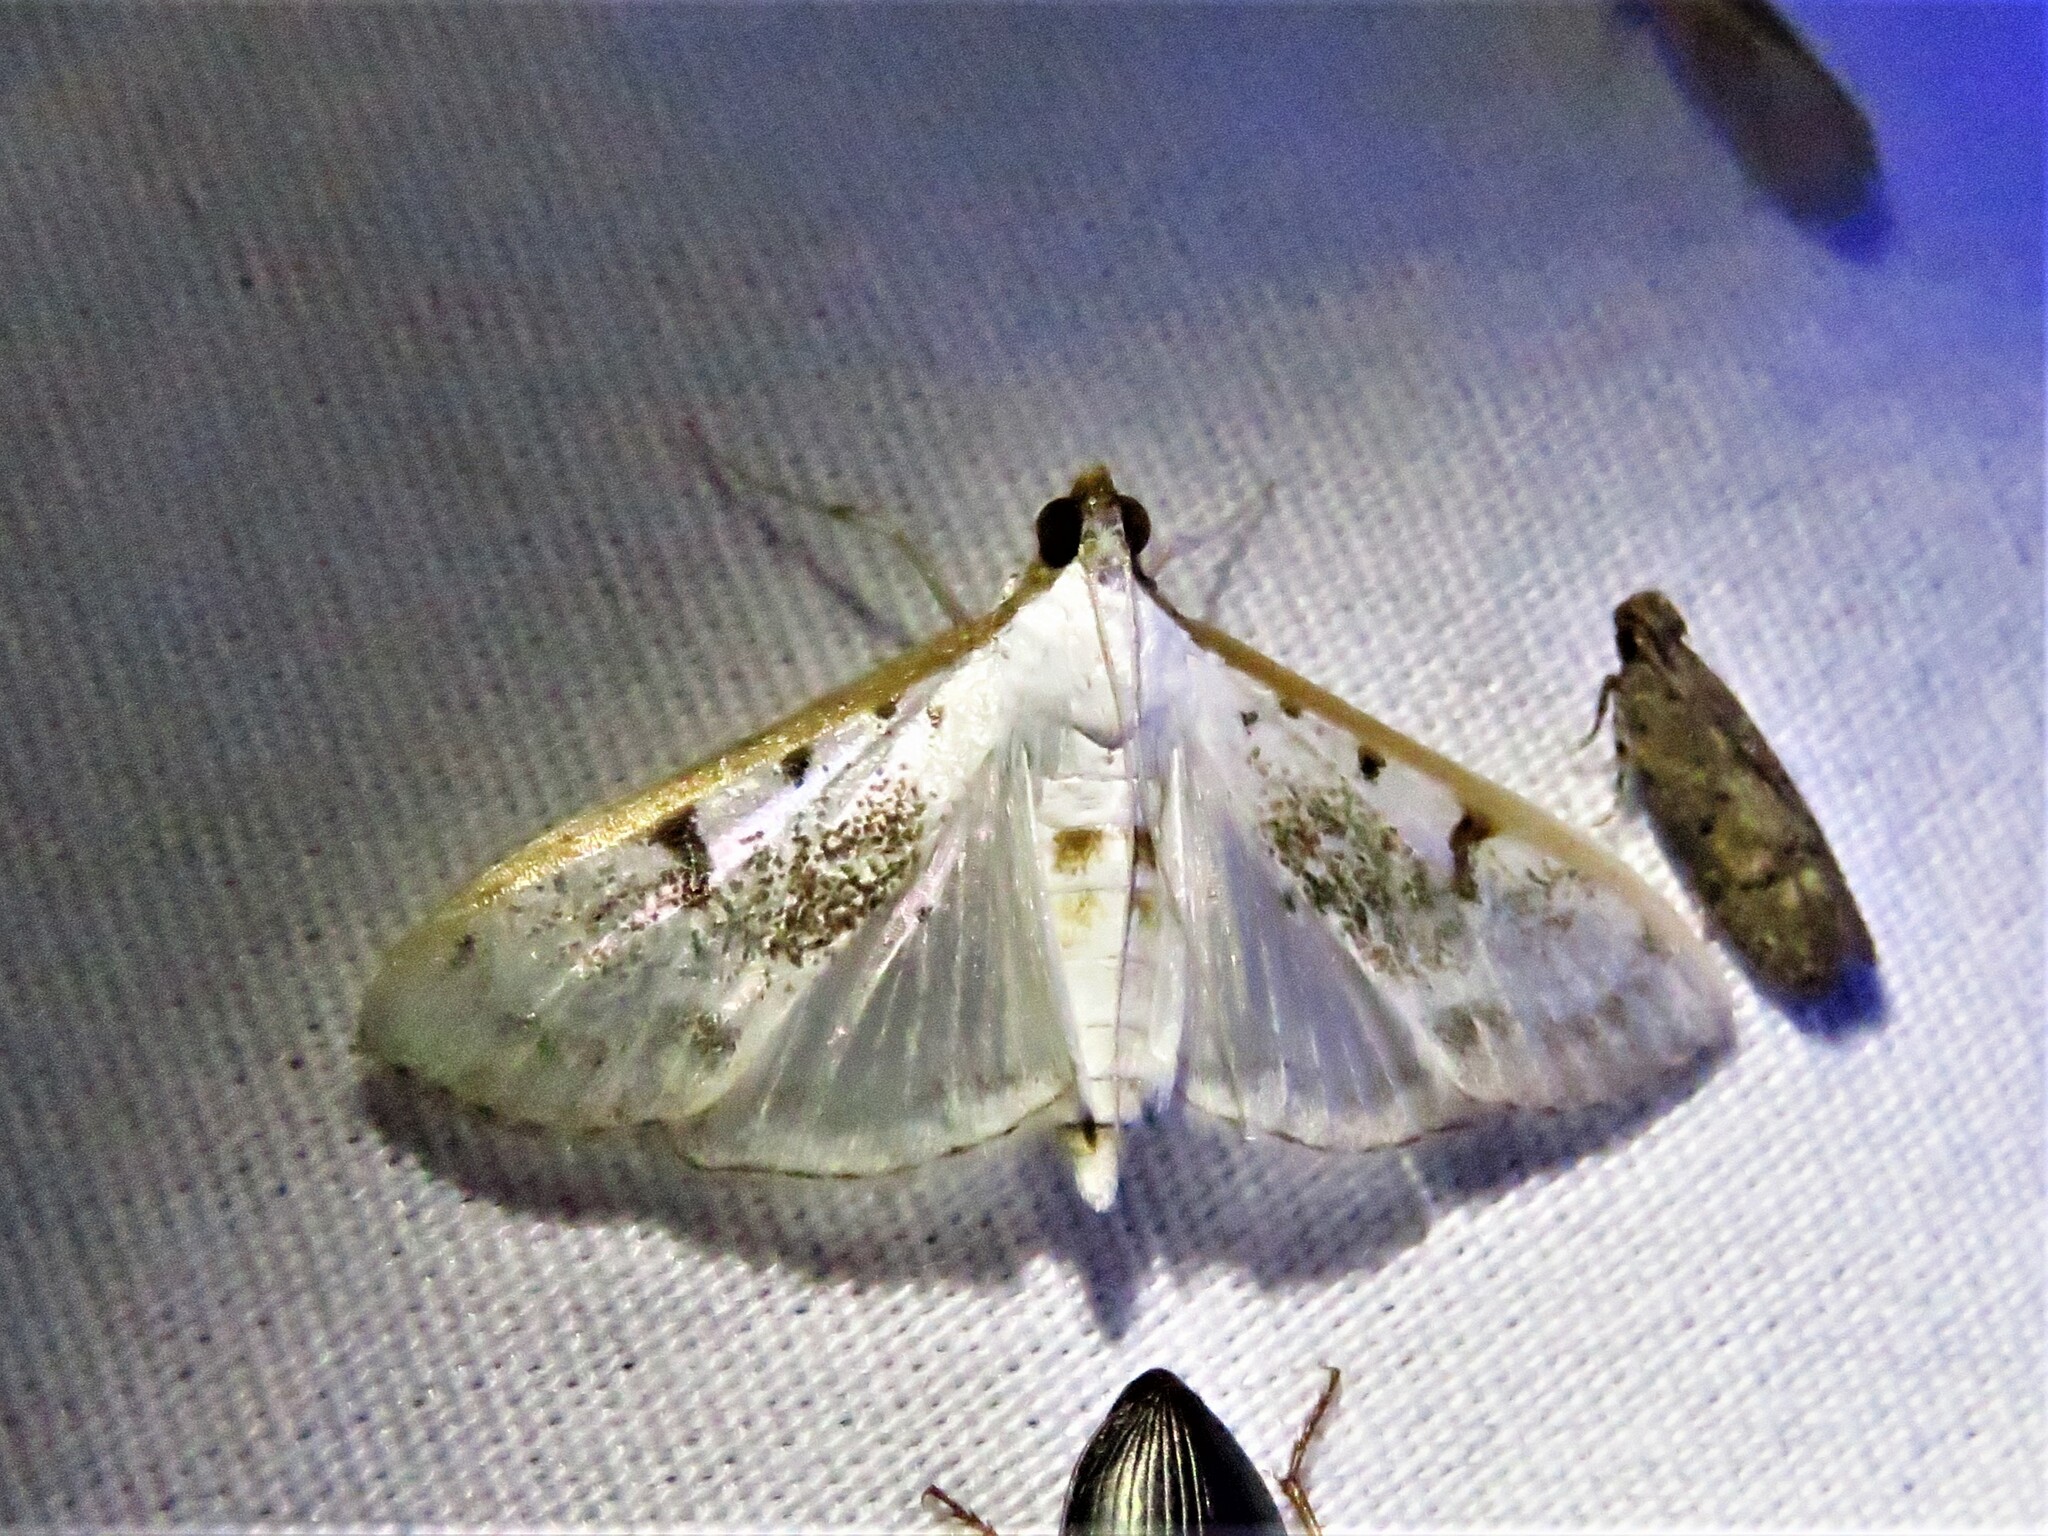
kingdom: Animalia
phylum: Arthropoda
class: Insecta
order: Lepidoptera
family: Crambidae
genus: Palpita
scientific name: Palpita gracilalis
